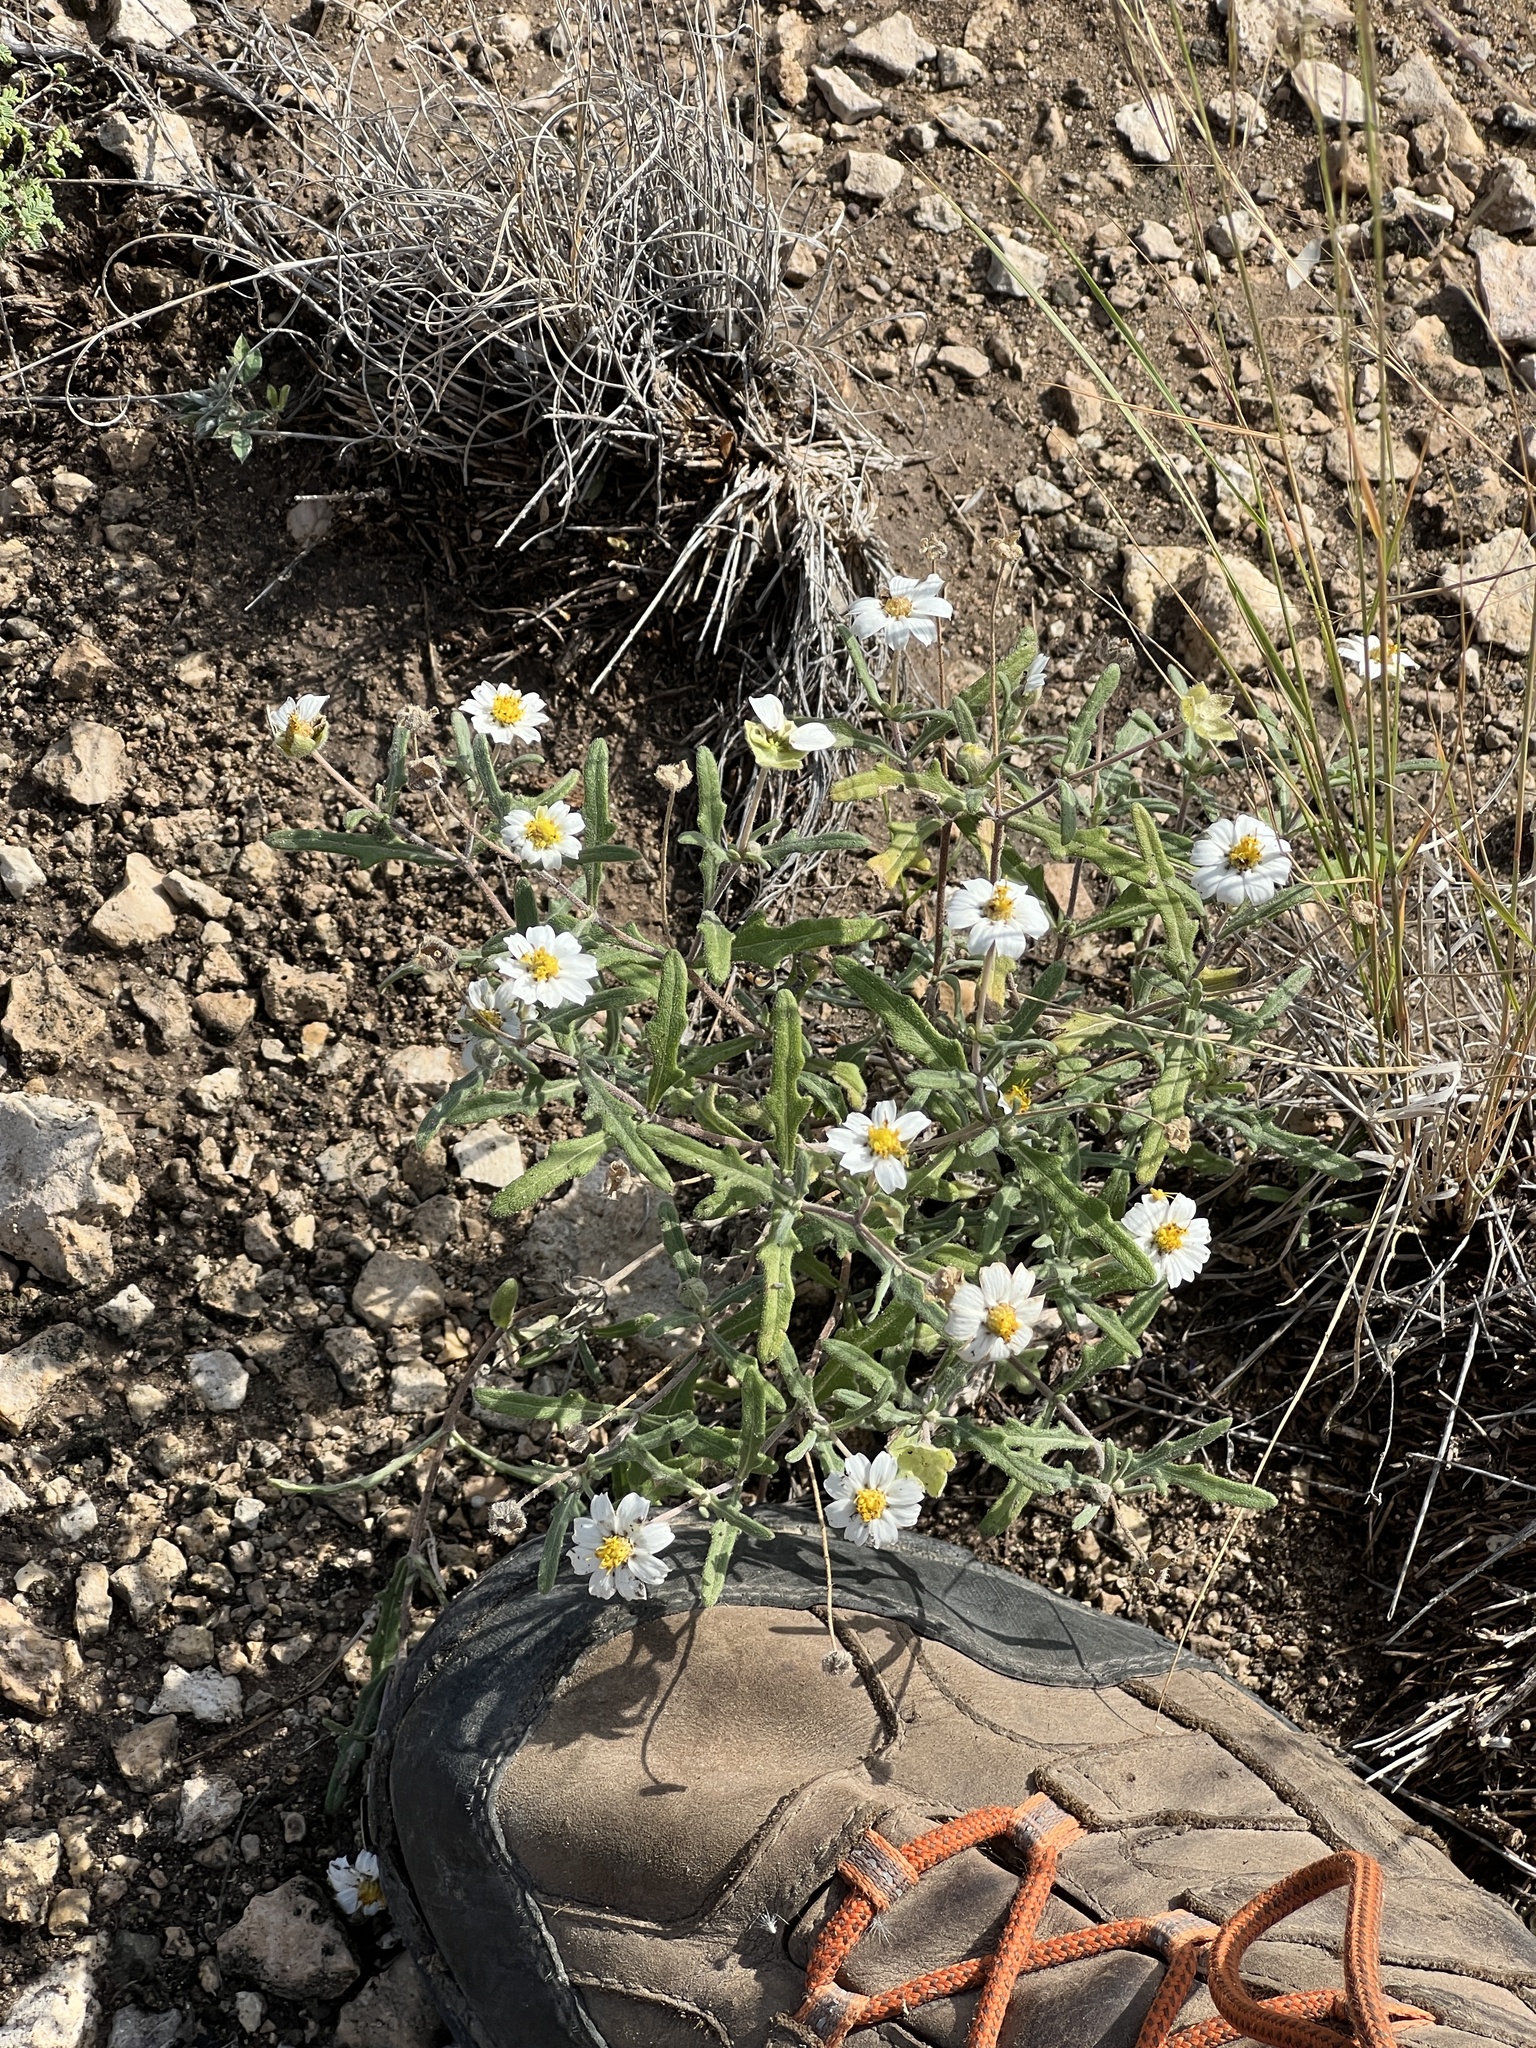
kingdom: Plantae
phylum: Tracheophyta
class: Magnoliopsida
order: Asterales
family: Asteraceae
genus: Melampodium
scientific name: Melampodium leucanthum
